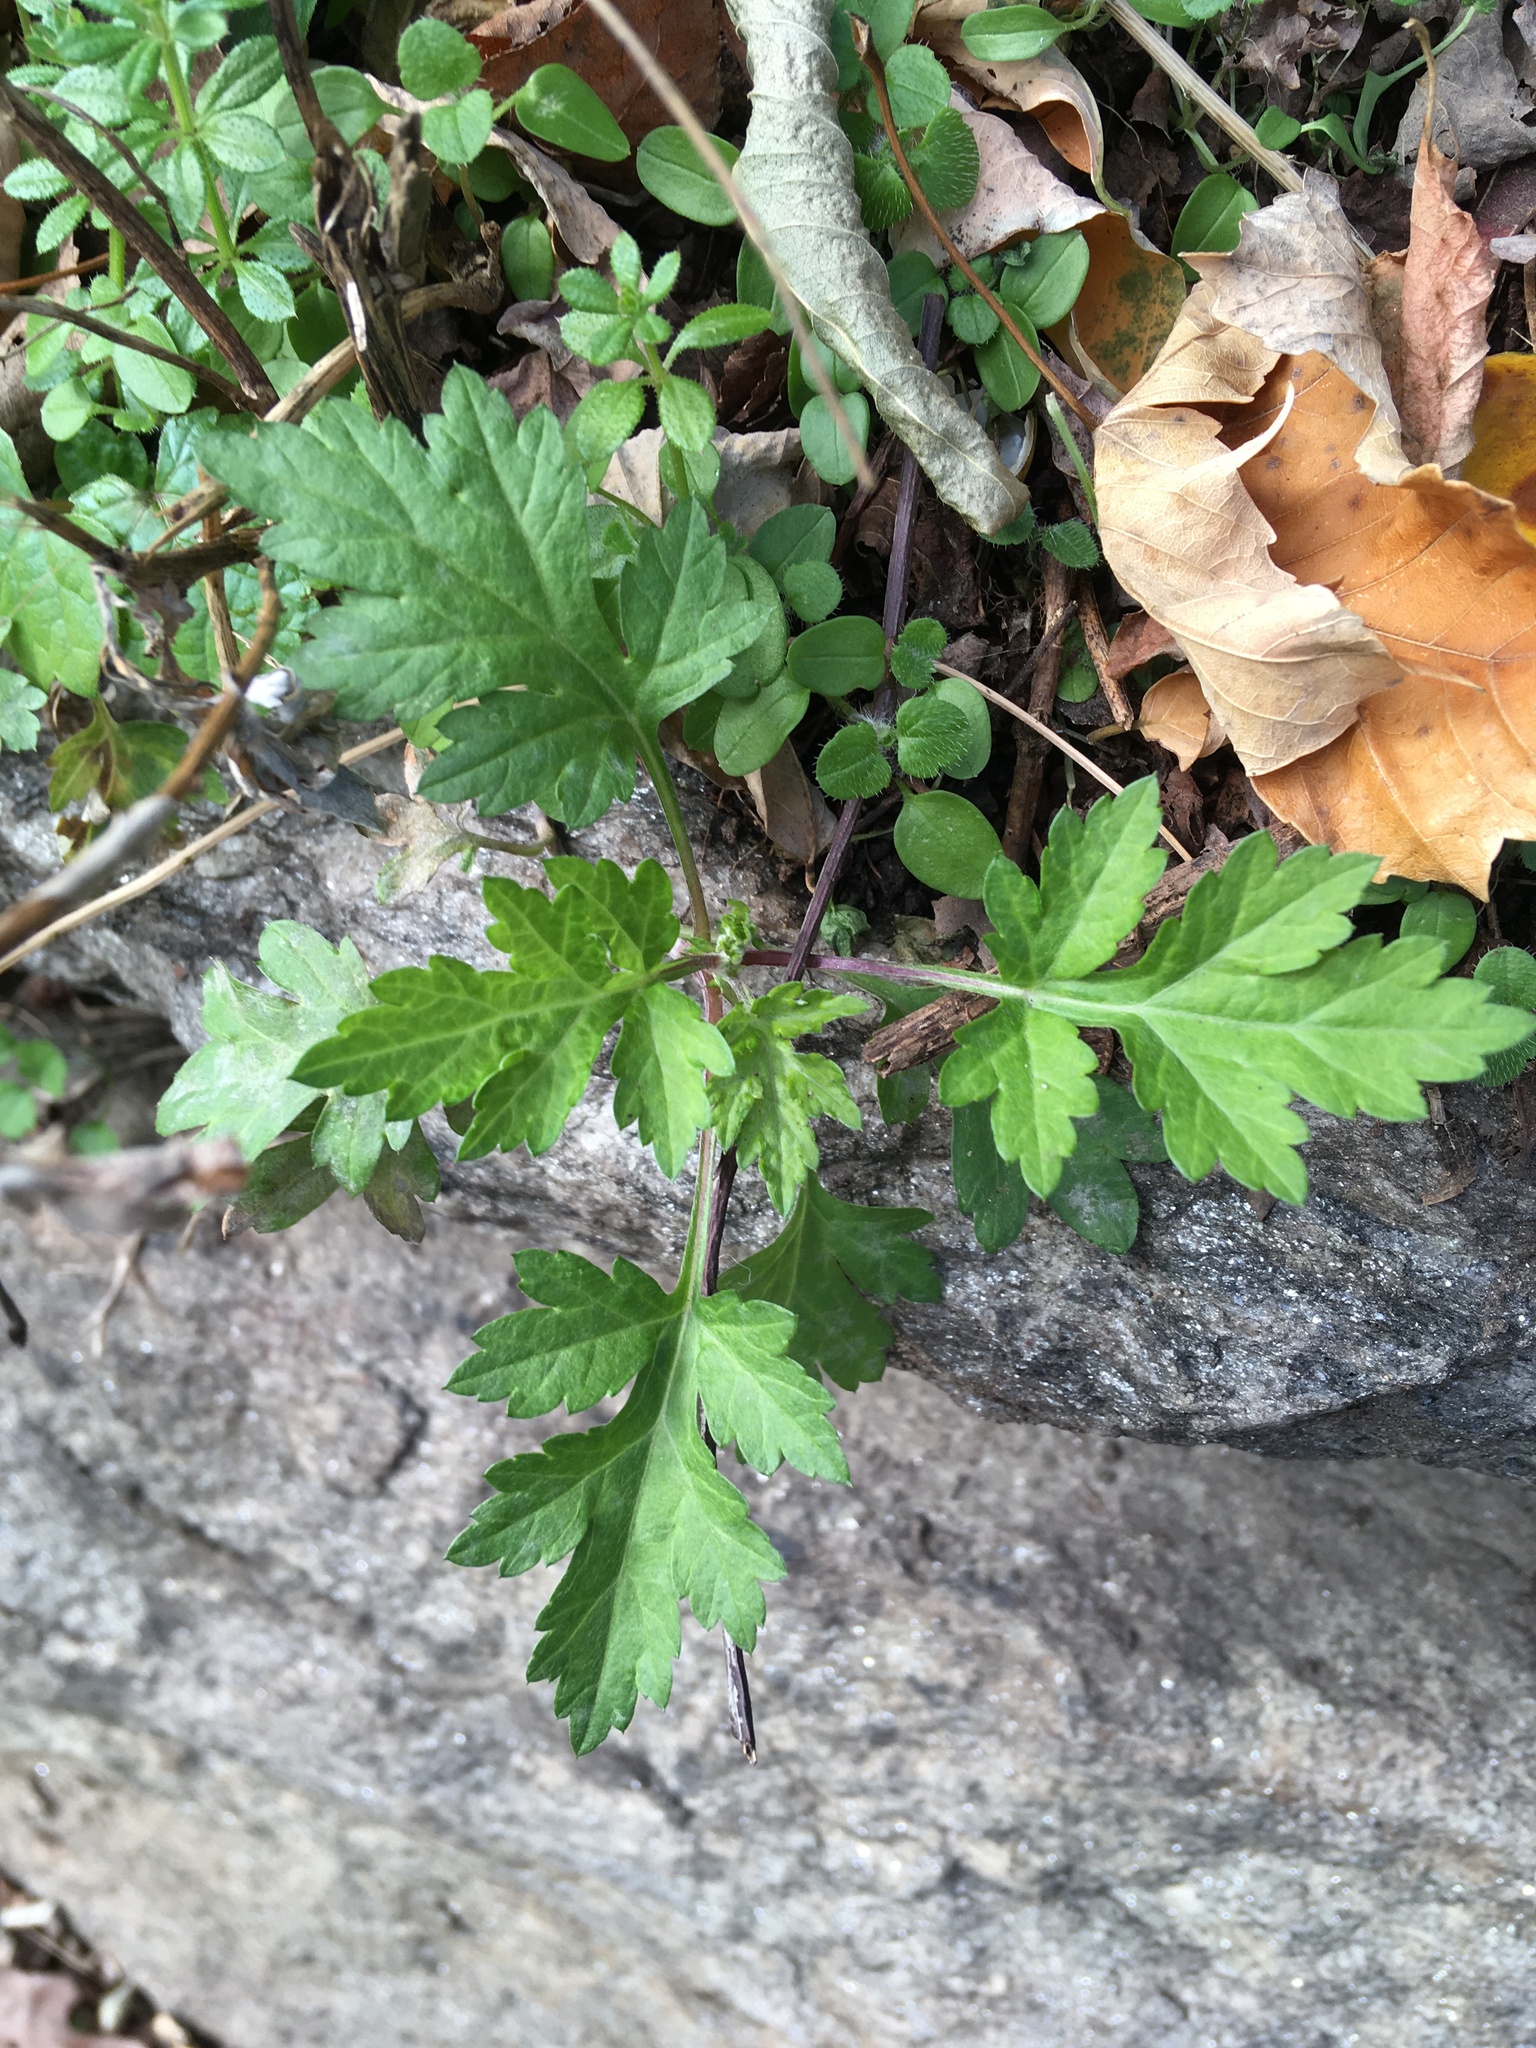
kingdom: Plantae
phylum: Tracheophyta
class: Magnoliopsida
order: Asterales
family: Asteraceae
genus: Artemisia
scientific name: Artemisia vulgaris
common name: Mugwort
